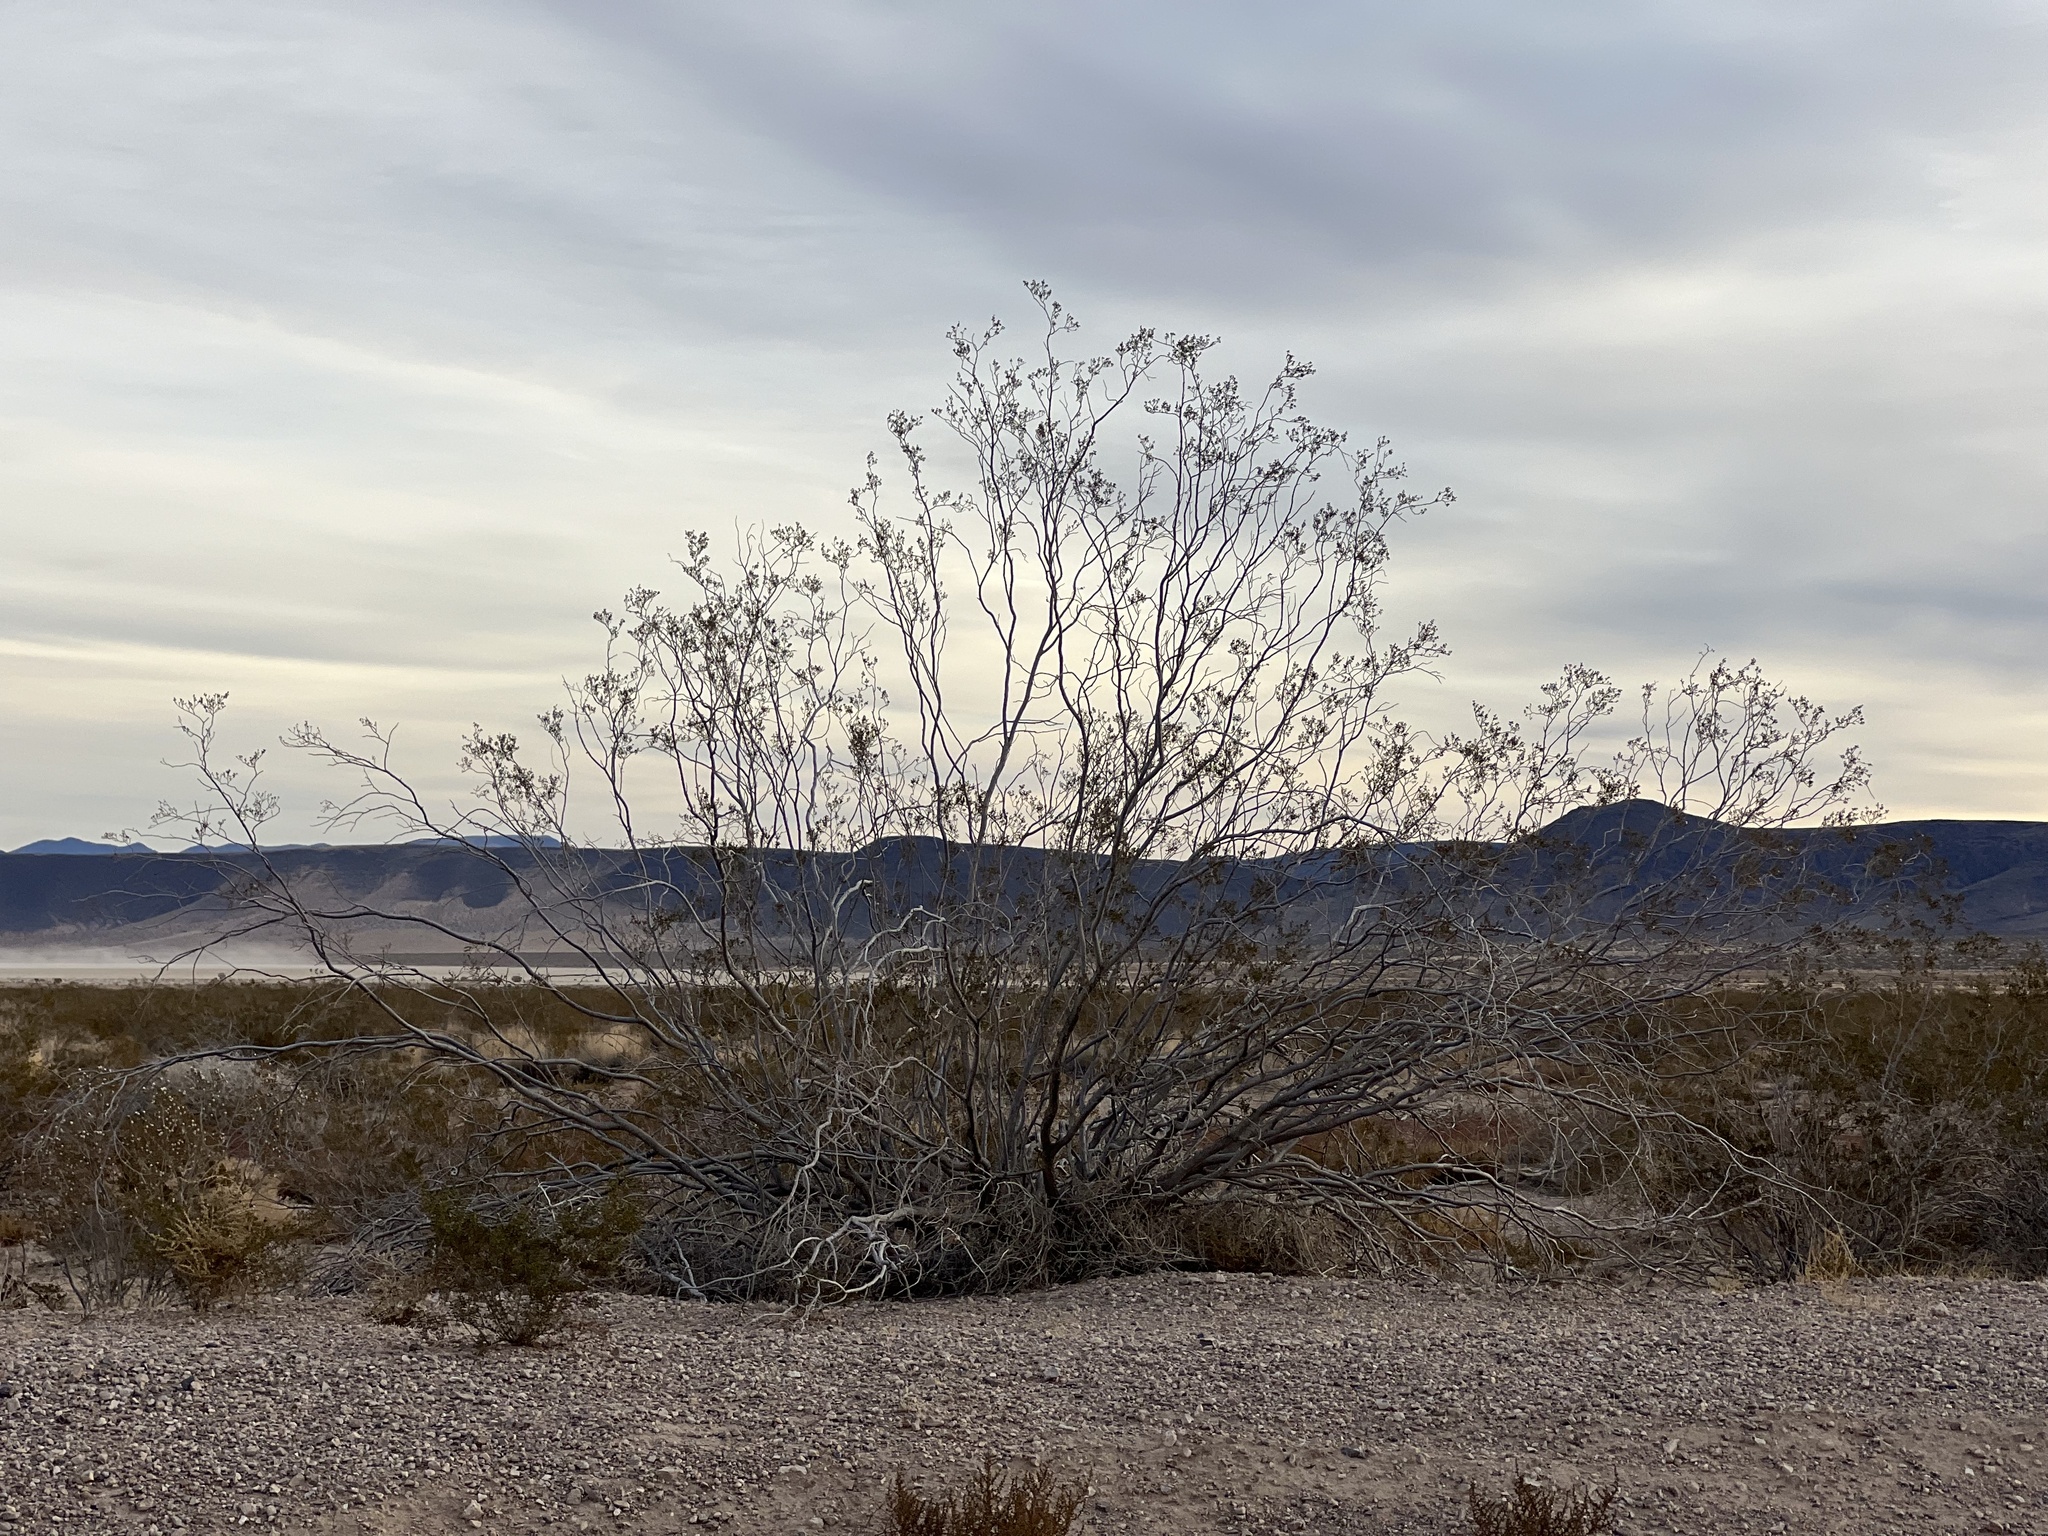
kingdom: Plantae
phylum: Tracheophyta
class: Magnoliopsida
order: Zygophyllales
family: Zygophyllaceae
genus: Larrea
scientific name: Larrea tridentata
